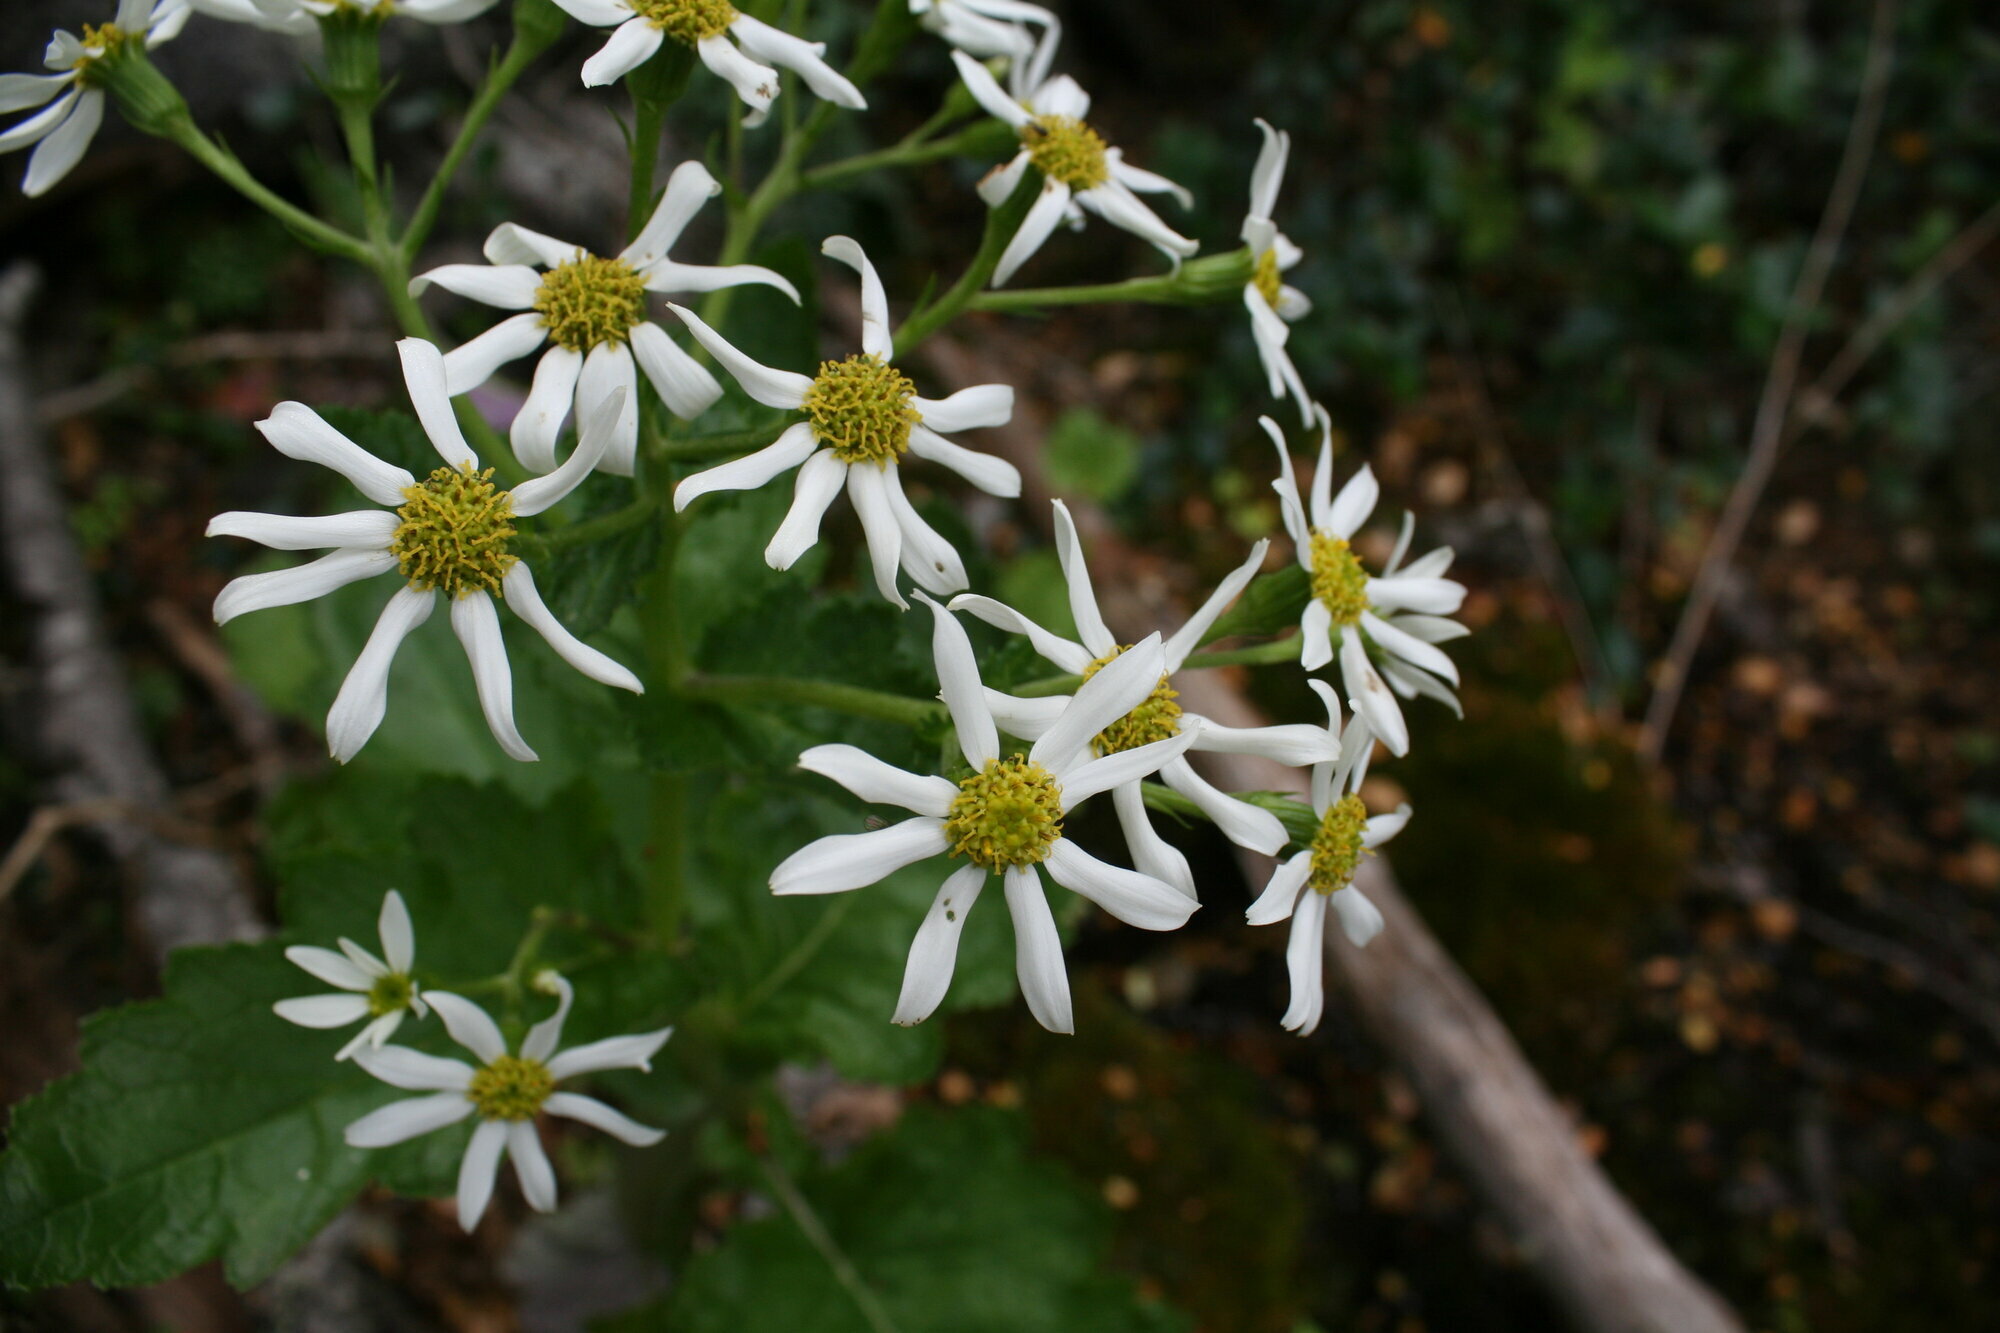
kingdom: Plantae
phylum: Tracheophyta
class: Magnoliopsida
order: Asterales
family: Asteraceae
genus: Iocenes
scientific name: Iocenes virens
